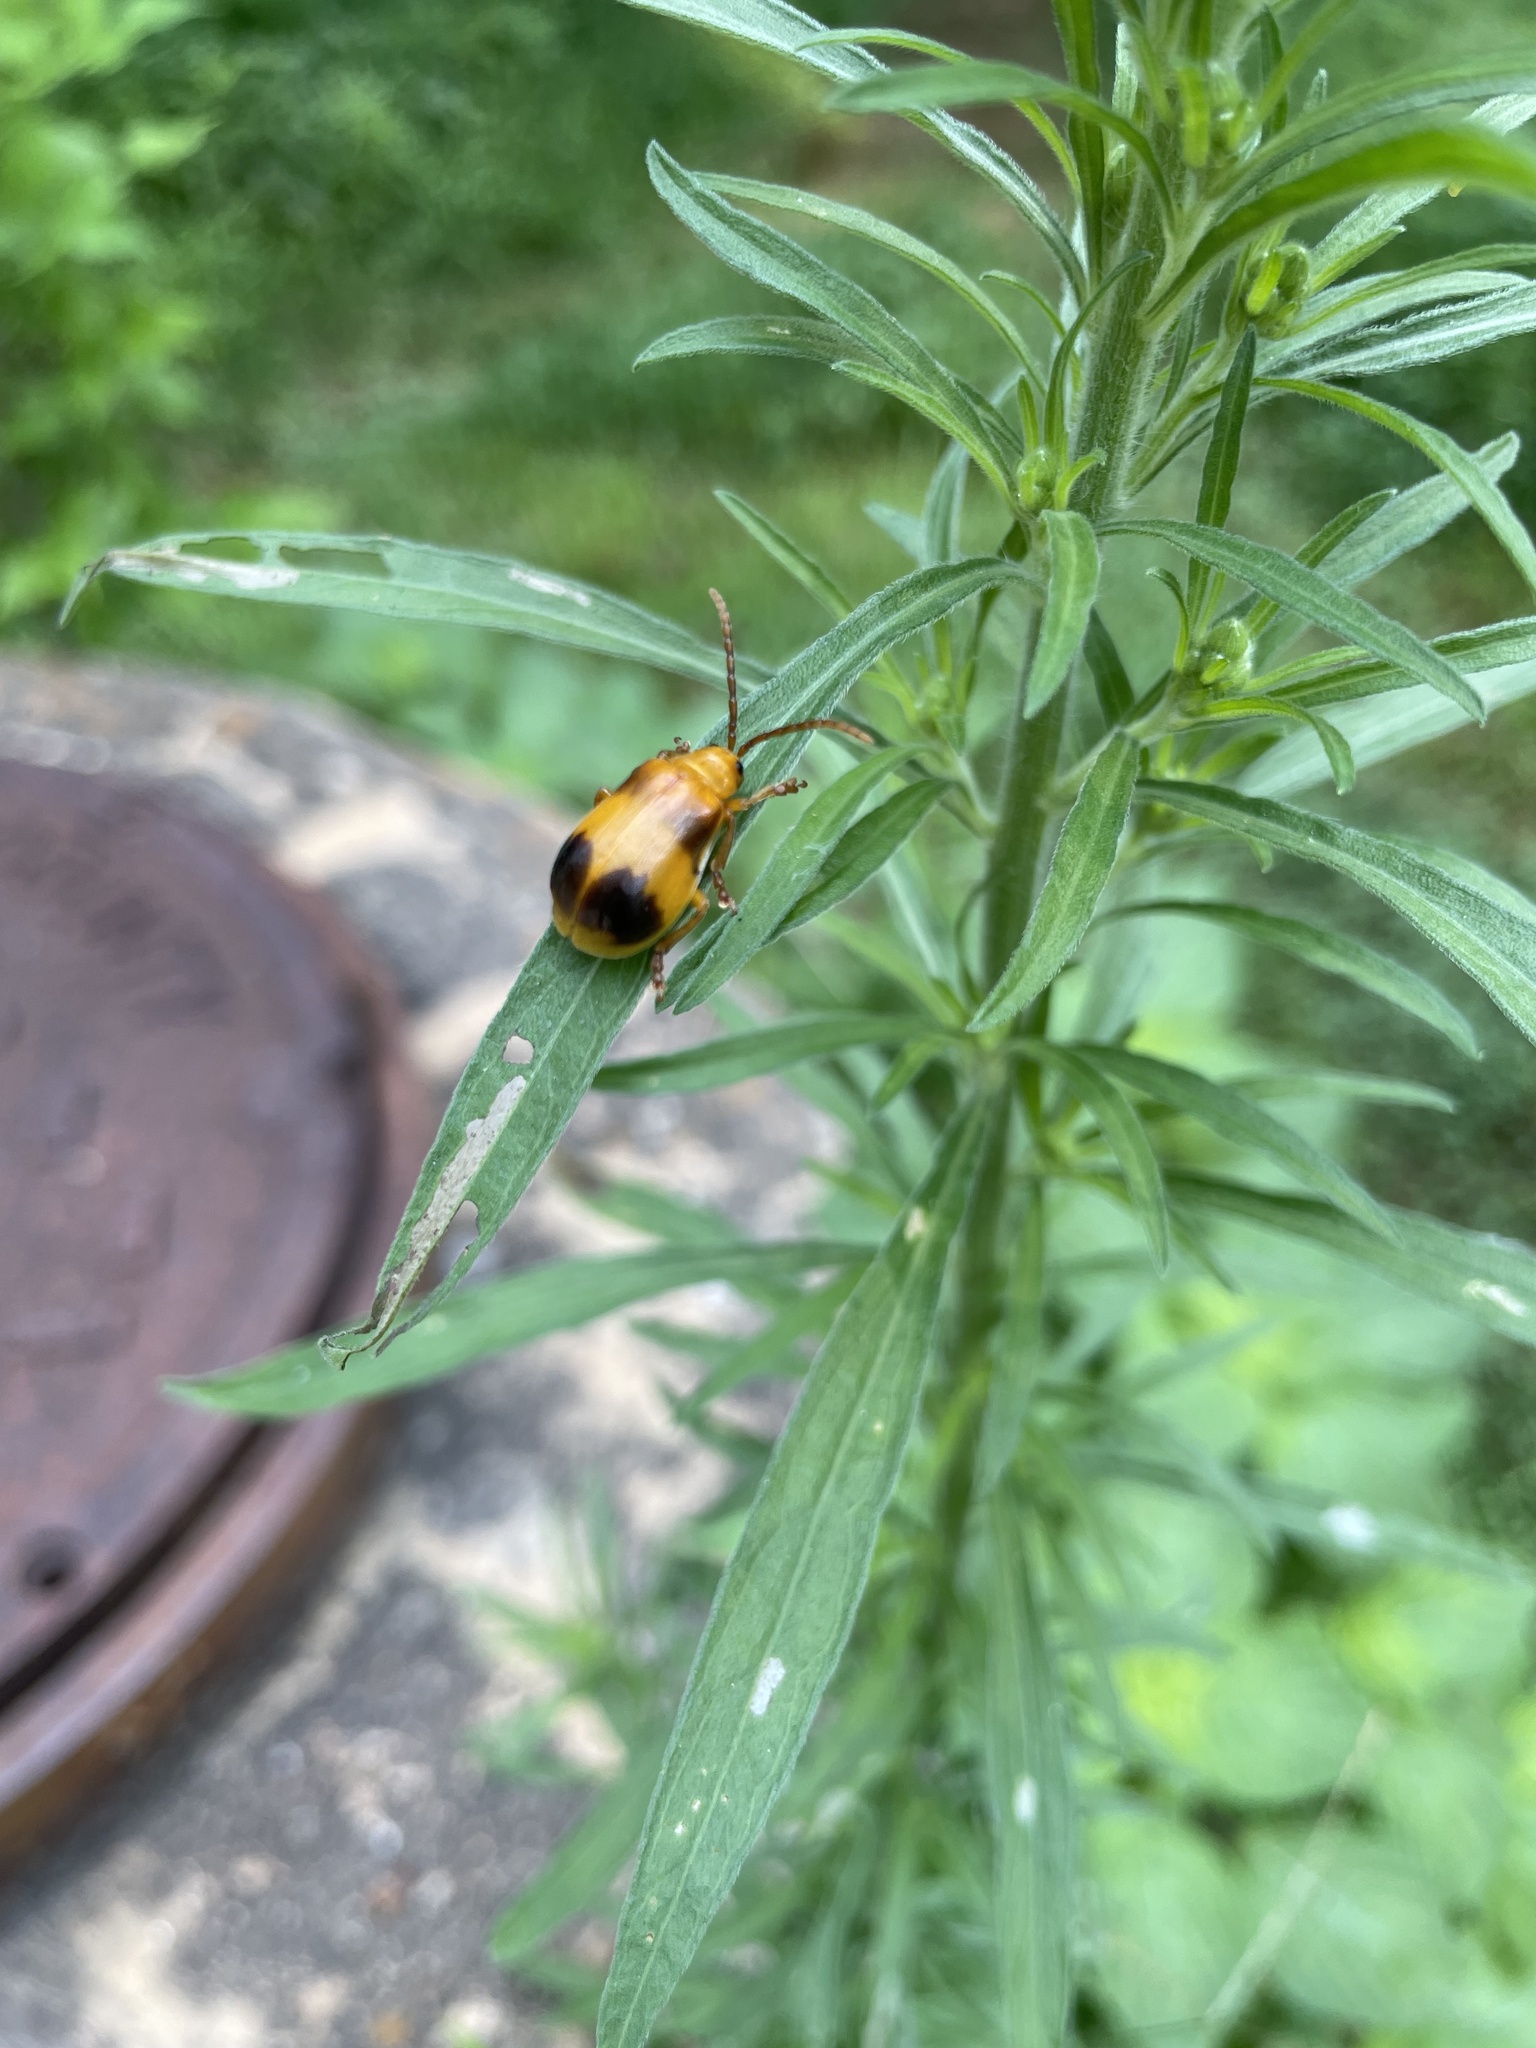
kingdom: Animalia
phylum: Arthropoda
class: Insecta
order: Coleoptera
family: Chrysomelidae
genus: Monocesta
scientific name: Monocesta coryli
